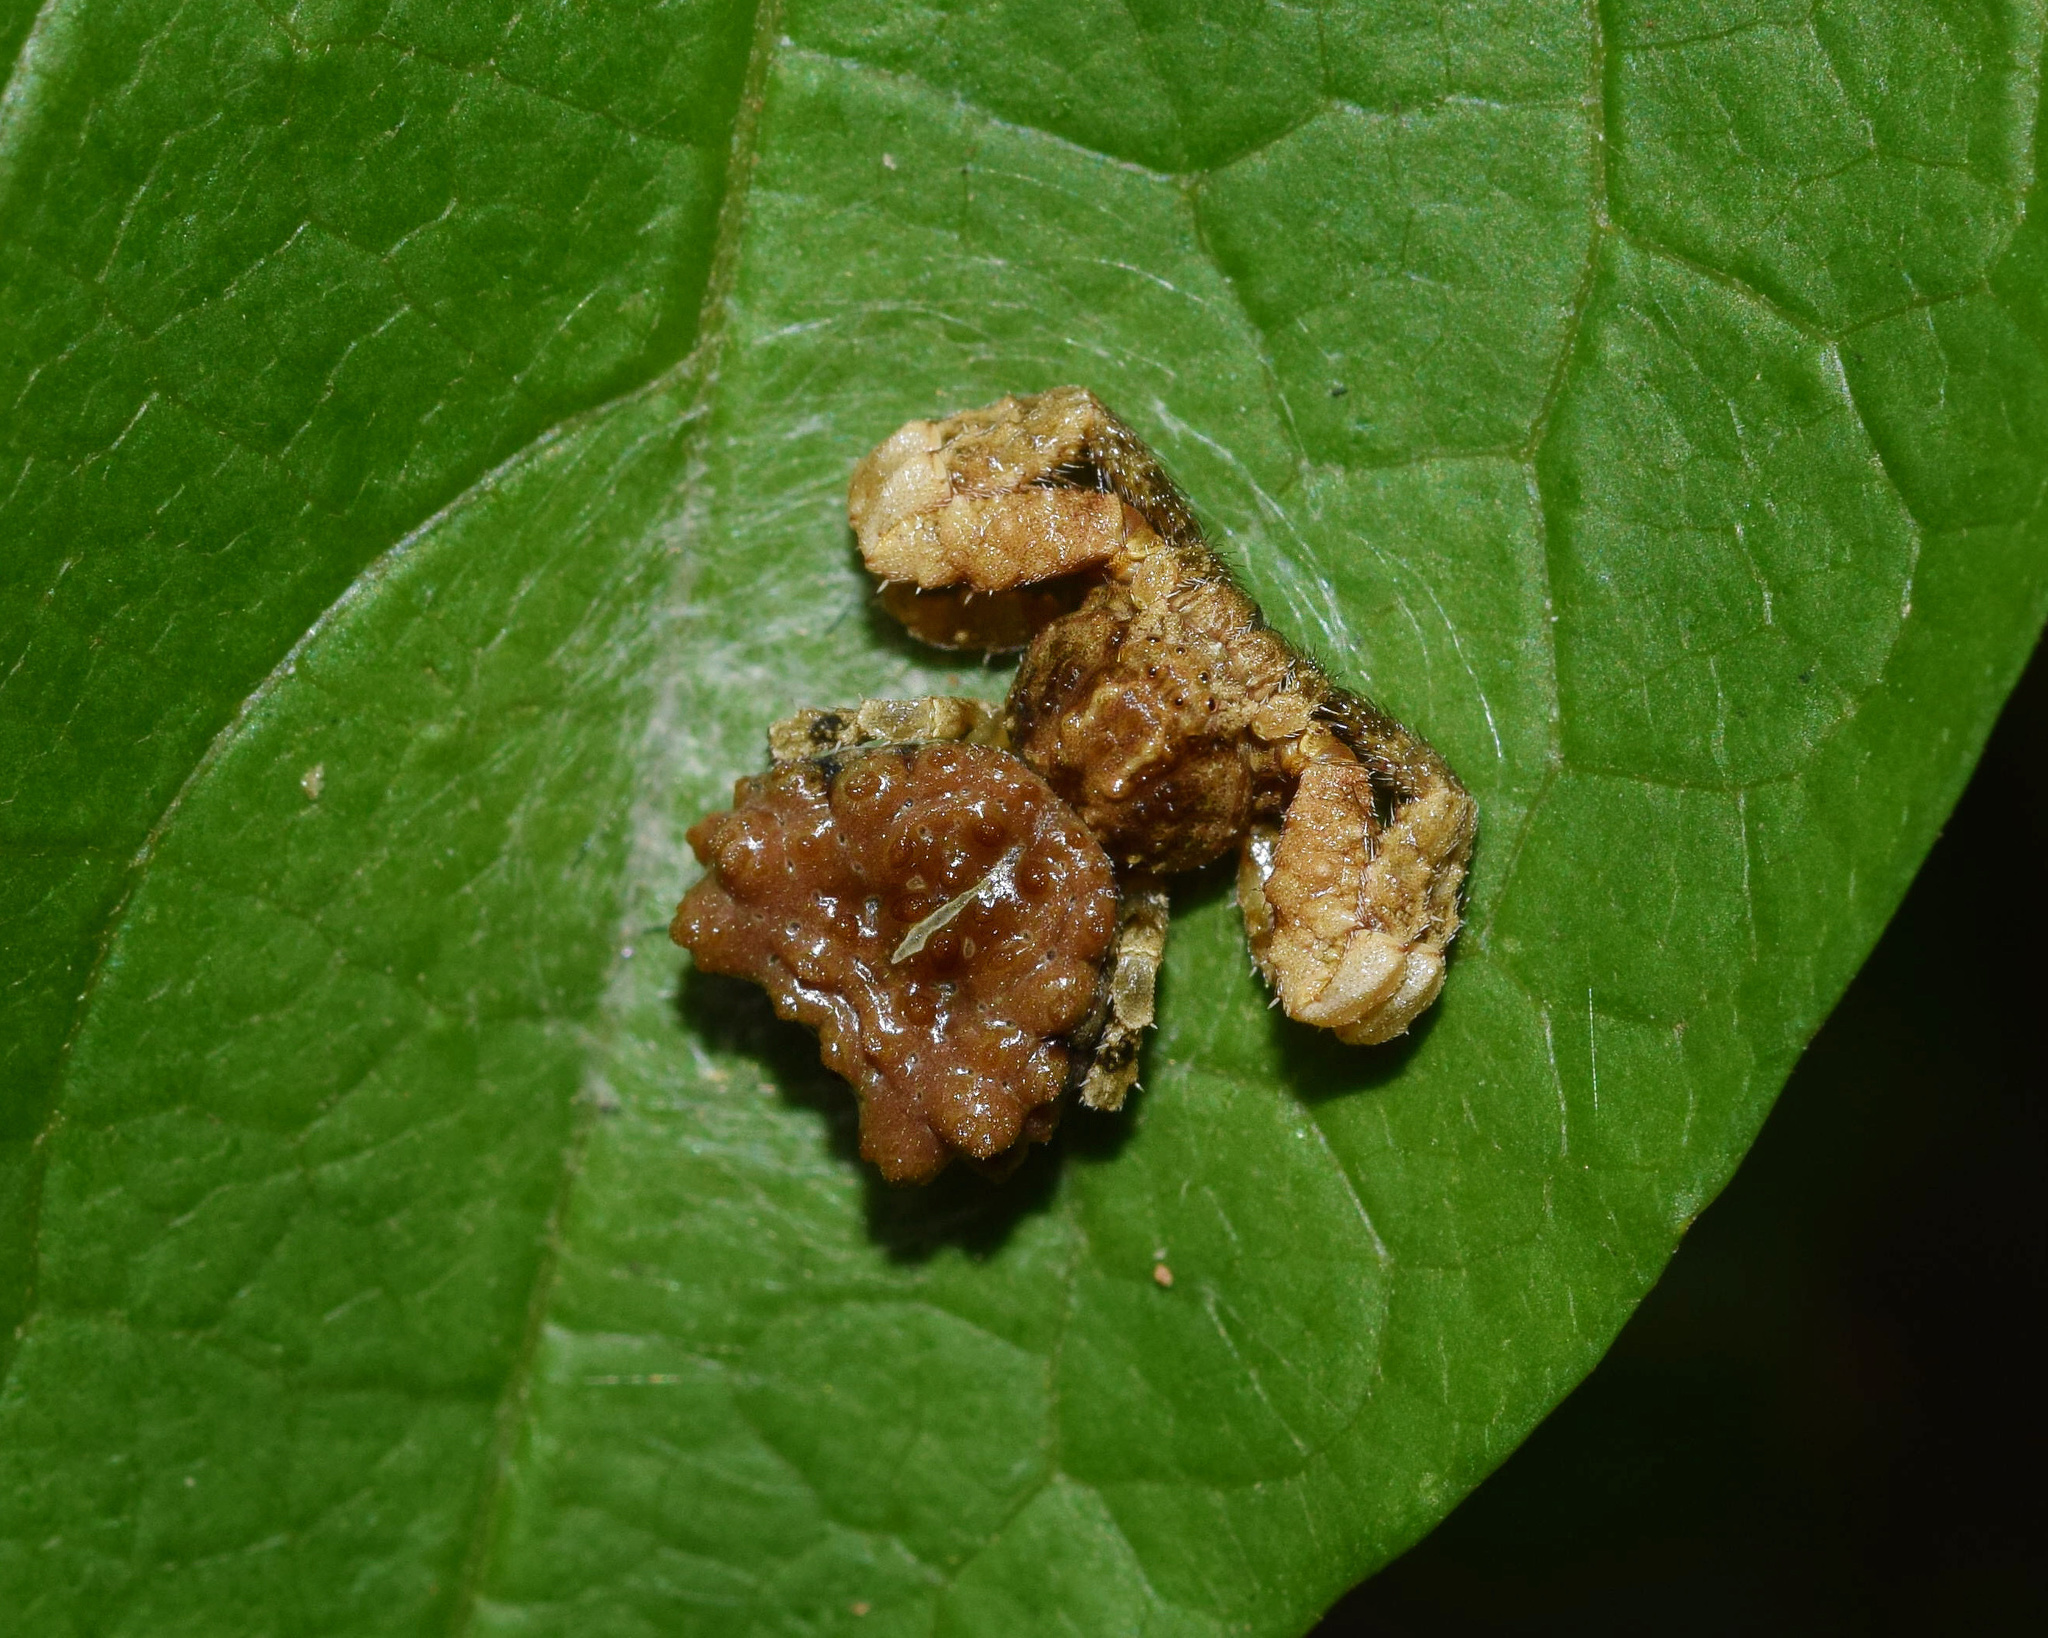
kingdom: Animalia
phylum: Arthropoda
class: Arachnida
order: Araneae
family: Thomisidae
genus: Phrynarachne
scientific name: Phrynarachne rugosa
